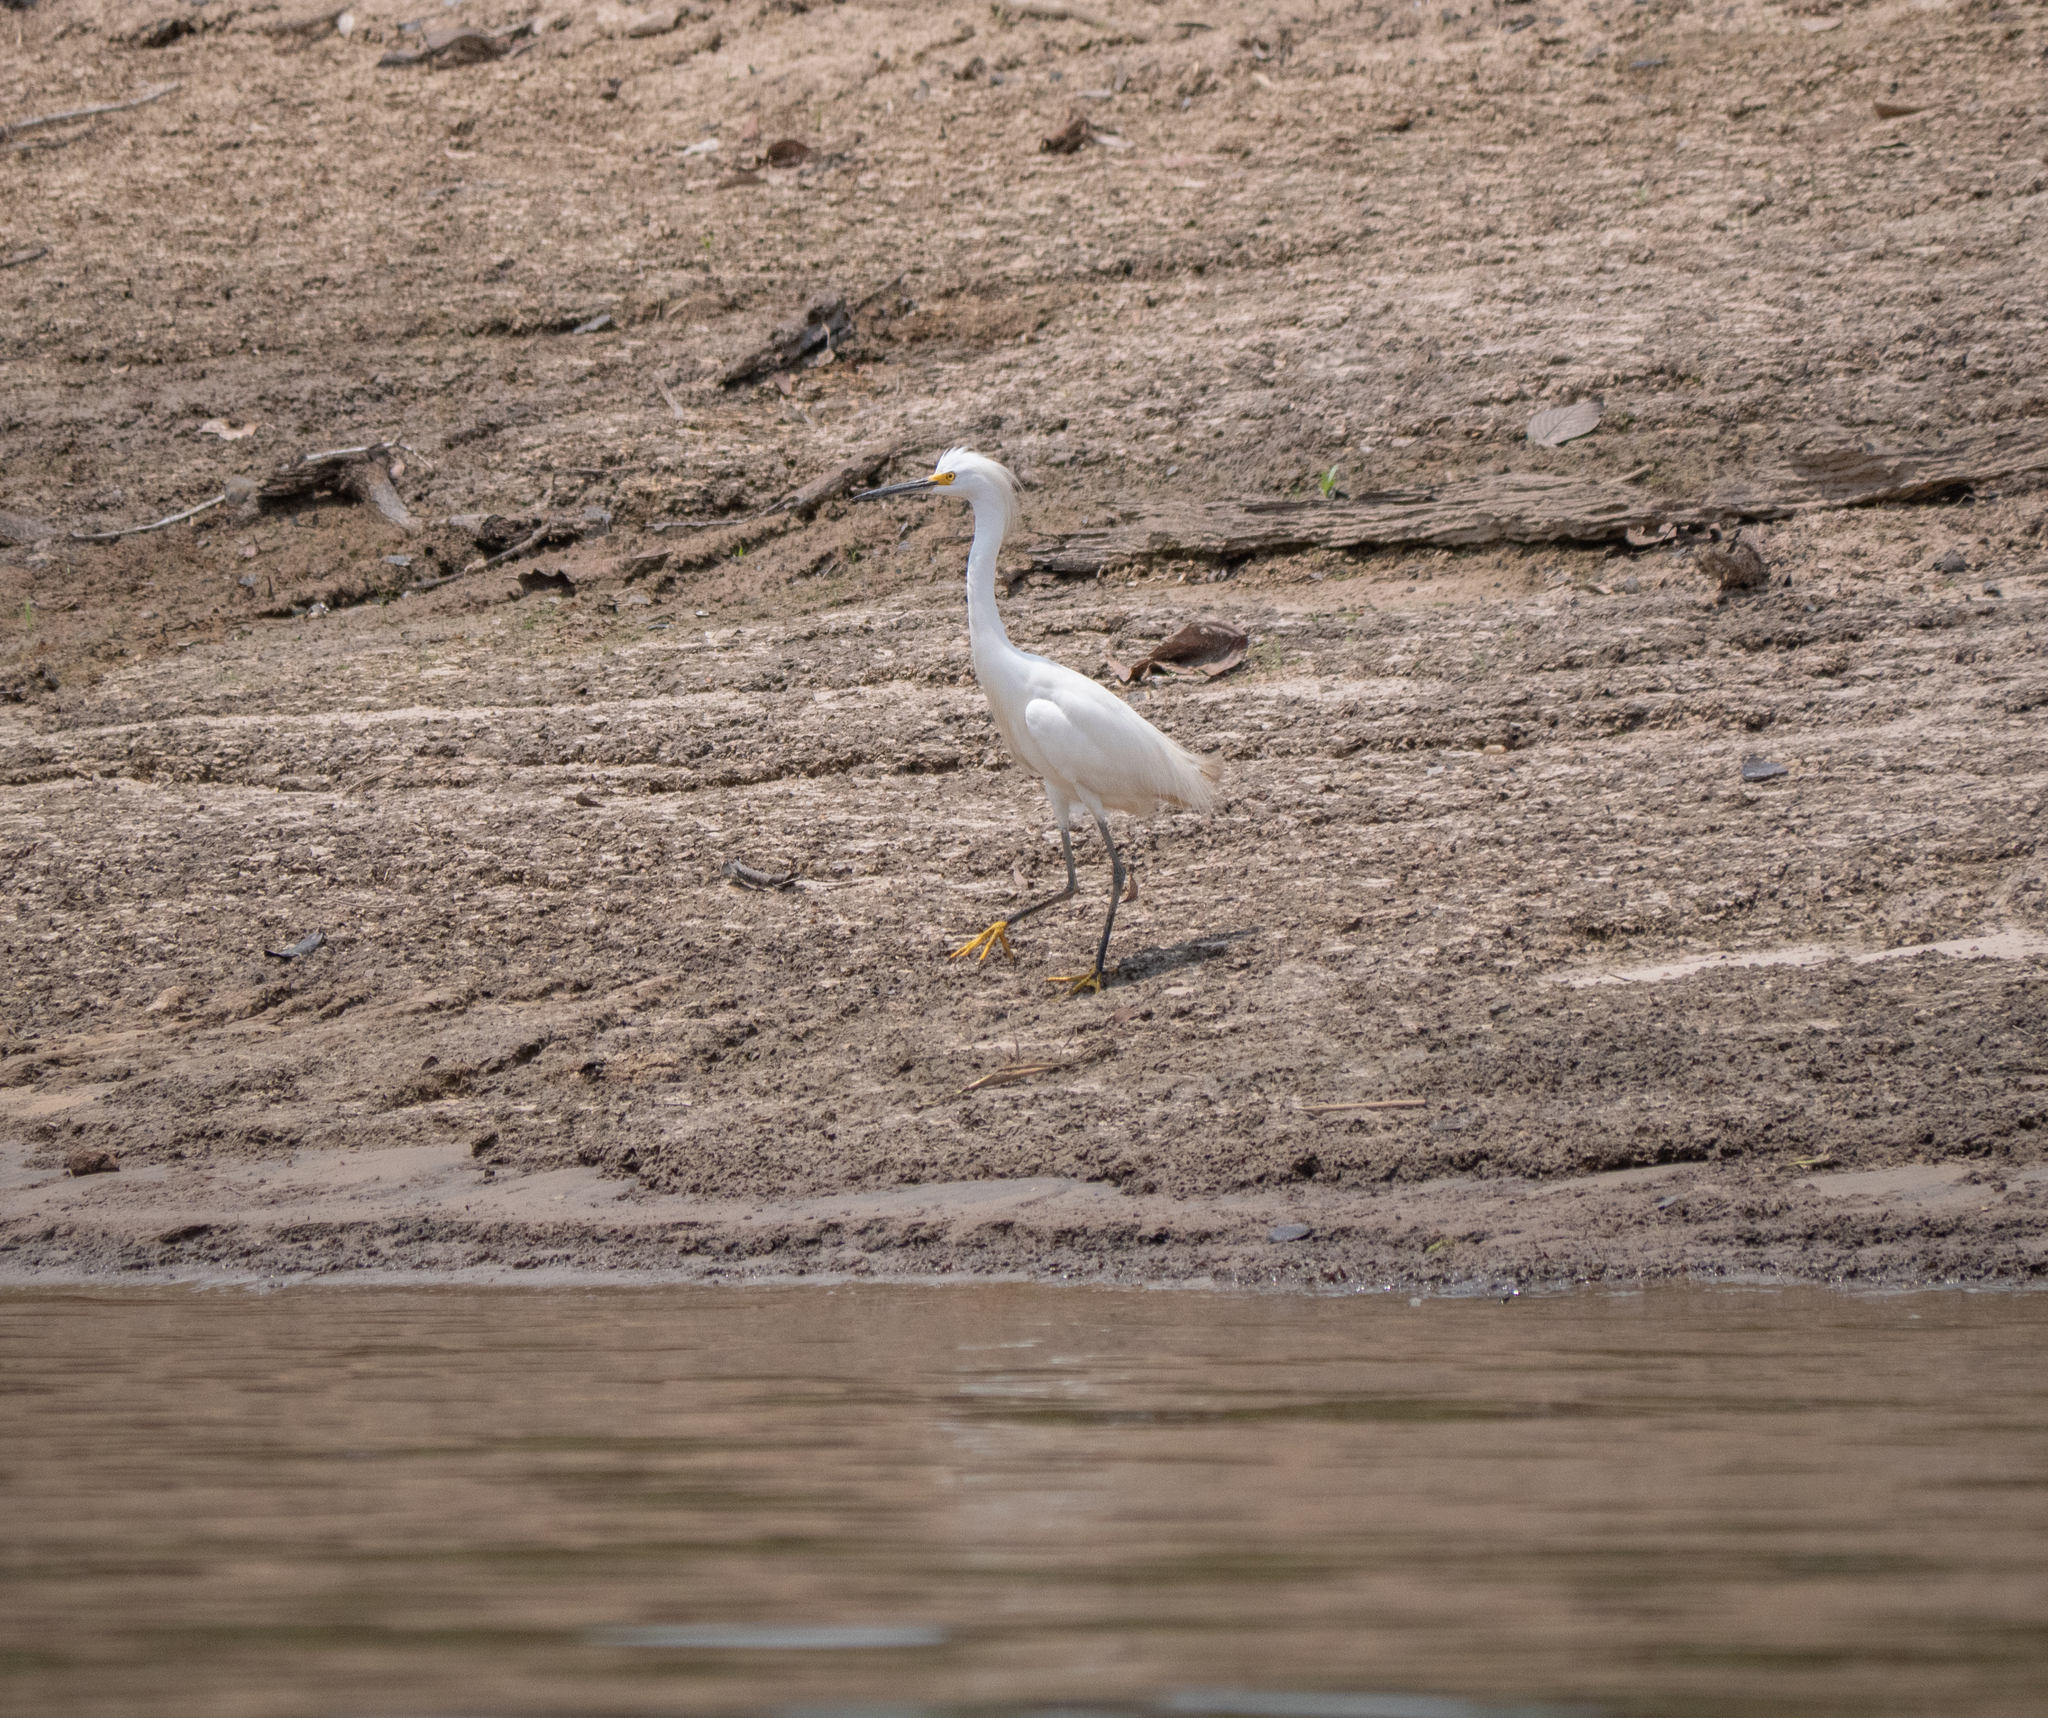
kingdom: Animalia
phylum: Chordata
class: Aves
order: Pelecaniformes
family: Ardeidae
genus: Egretta
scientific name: Egretta thula
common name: Snowy egret
